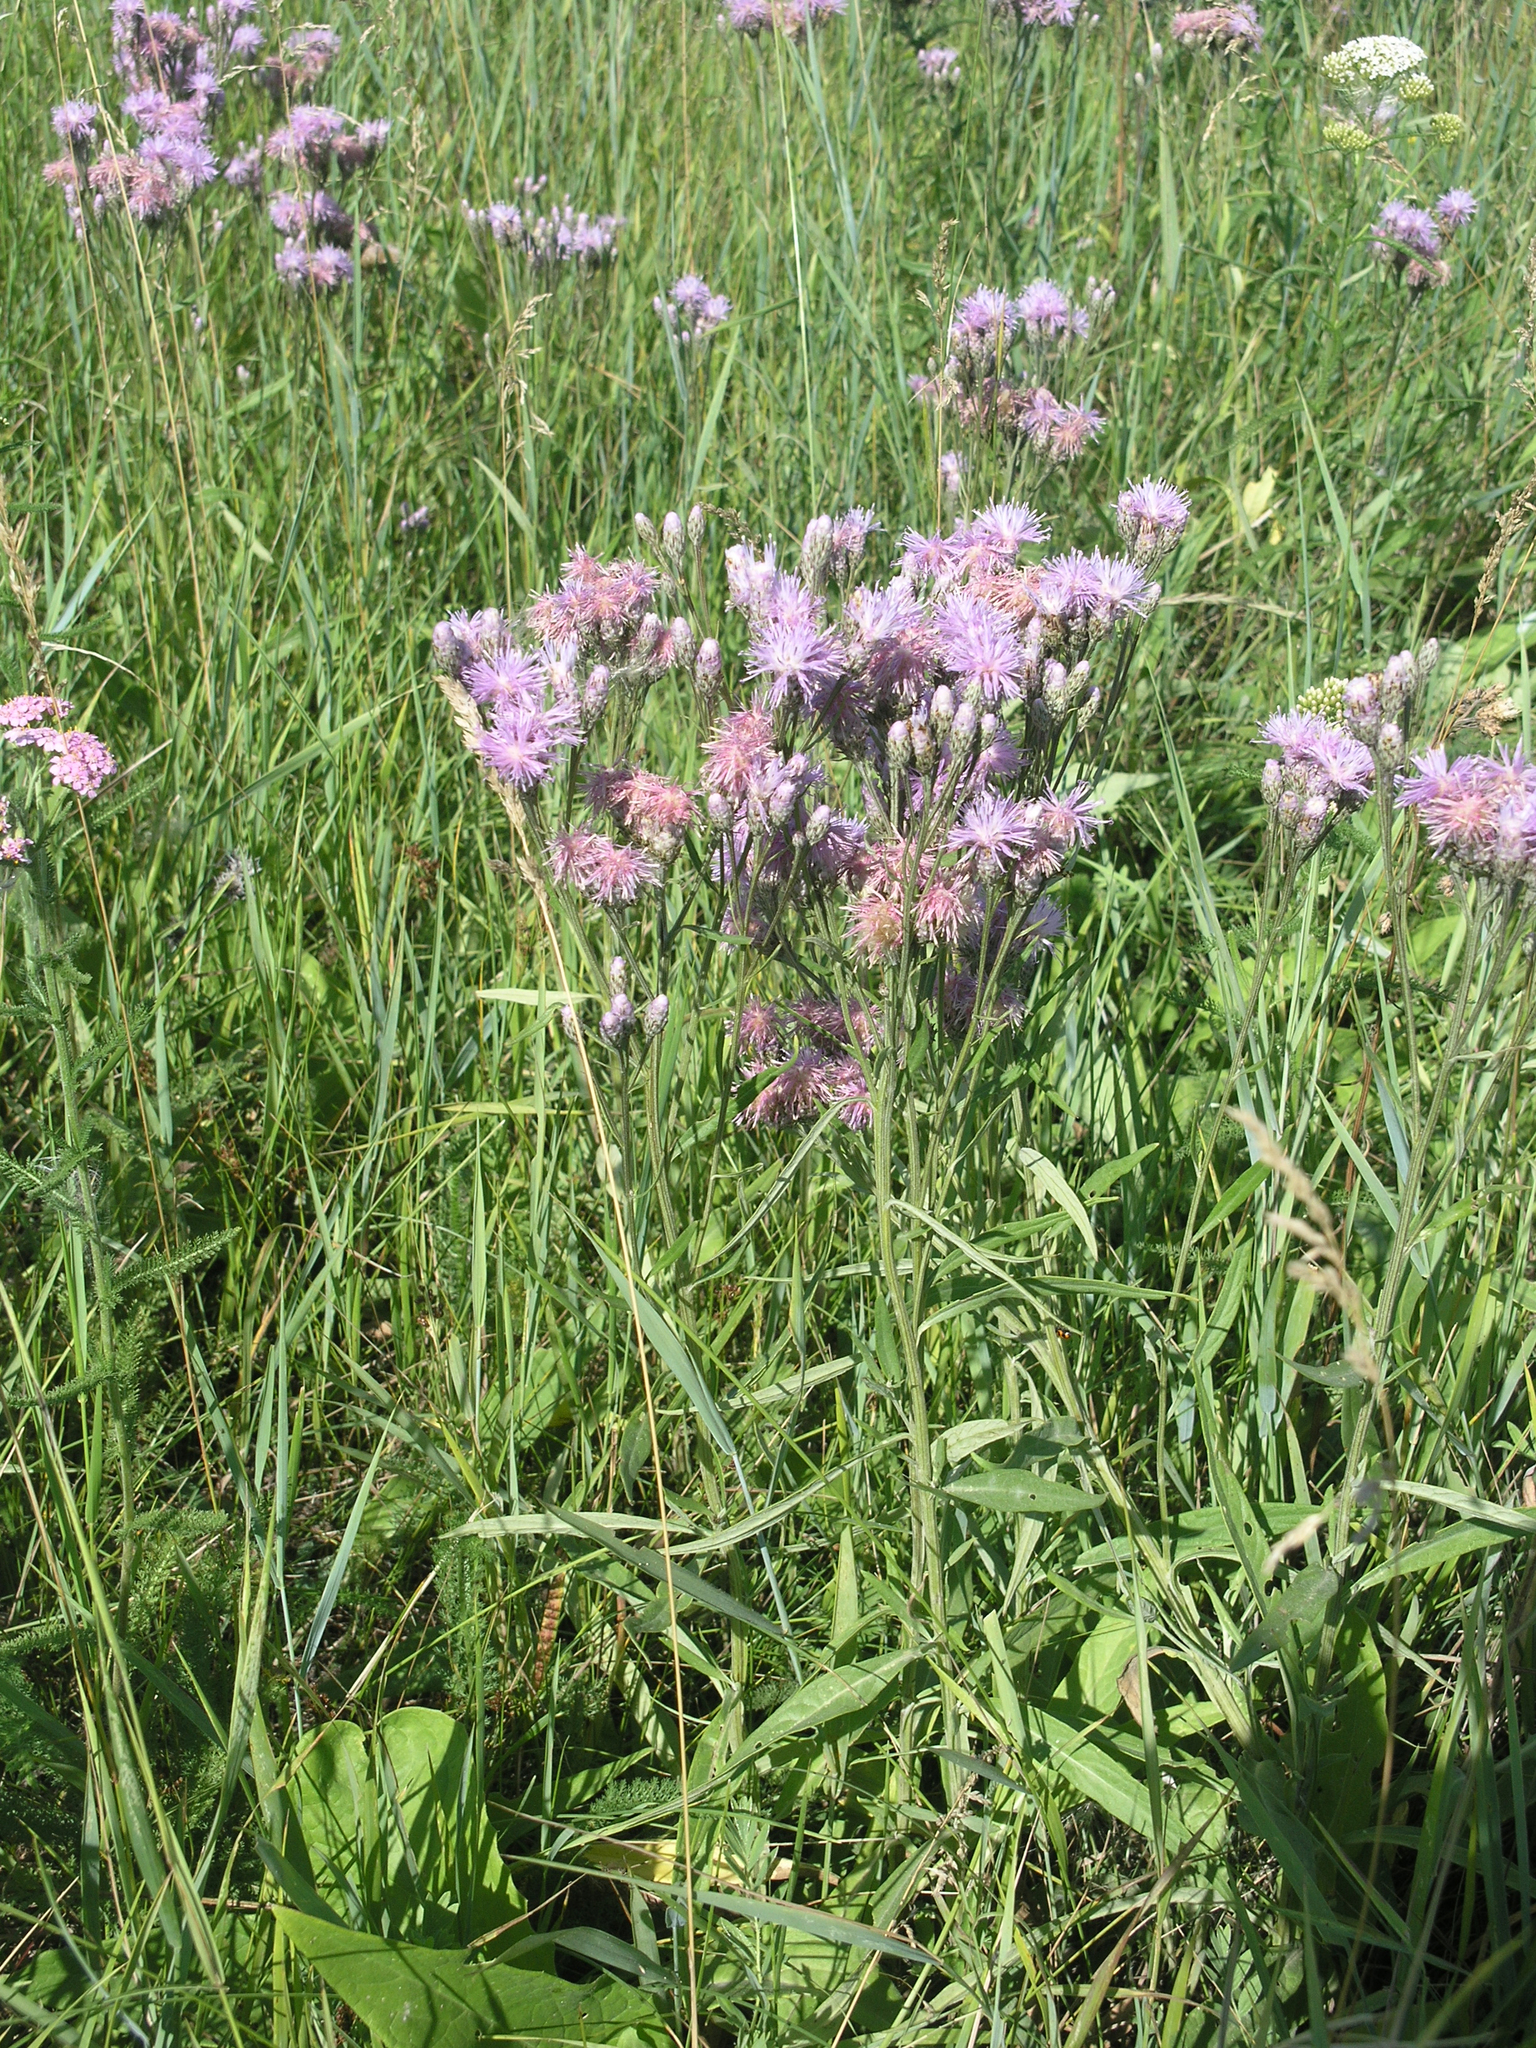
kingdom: Plantae
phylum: Tracheophyta
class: Magnoliopsida
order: Asterales
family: Asteraceae
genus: Saussurea
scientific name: Saussurea amara
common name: Alberta sawwort
